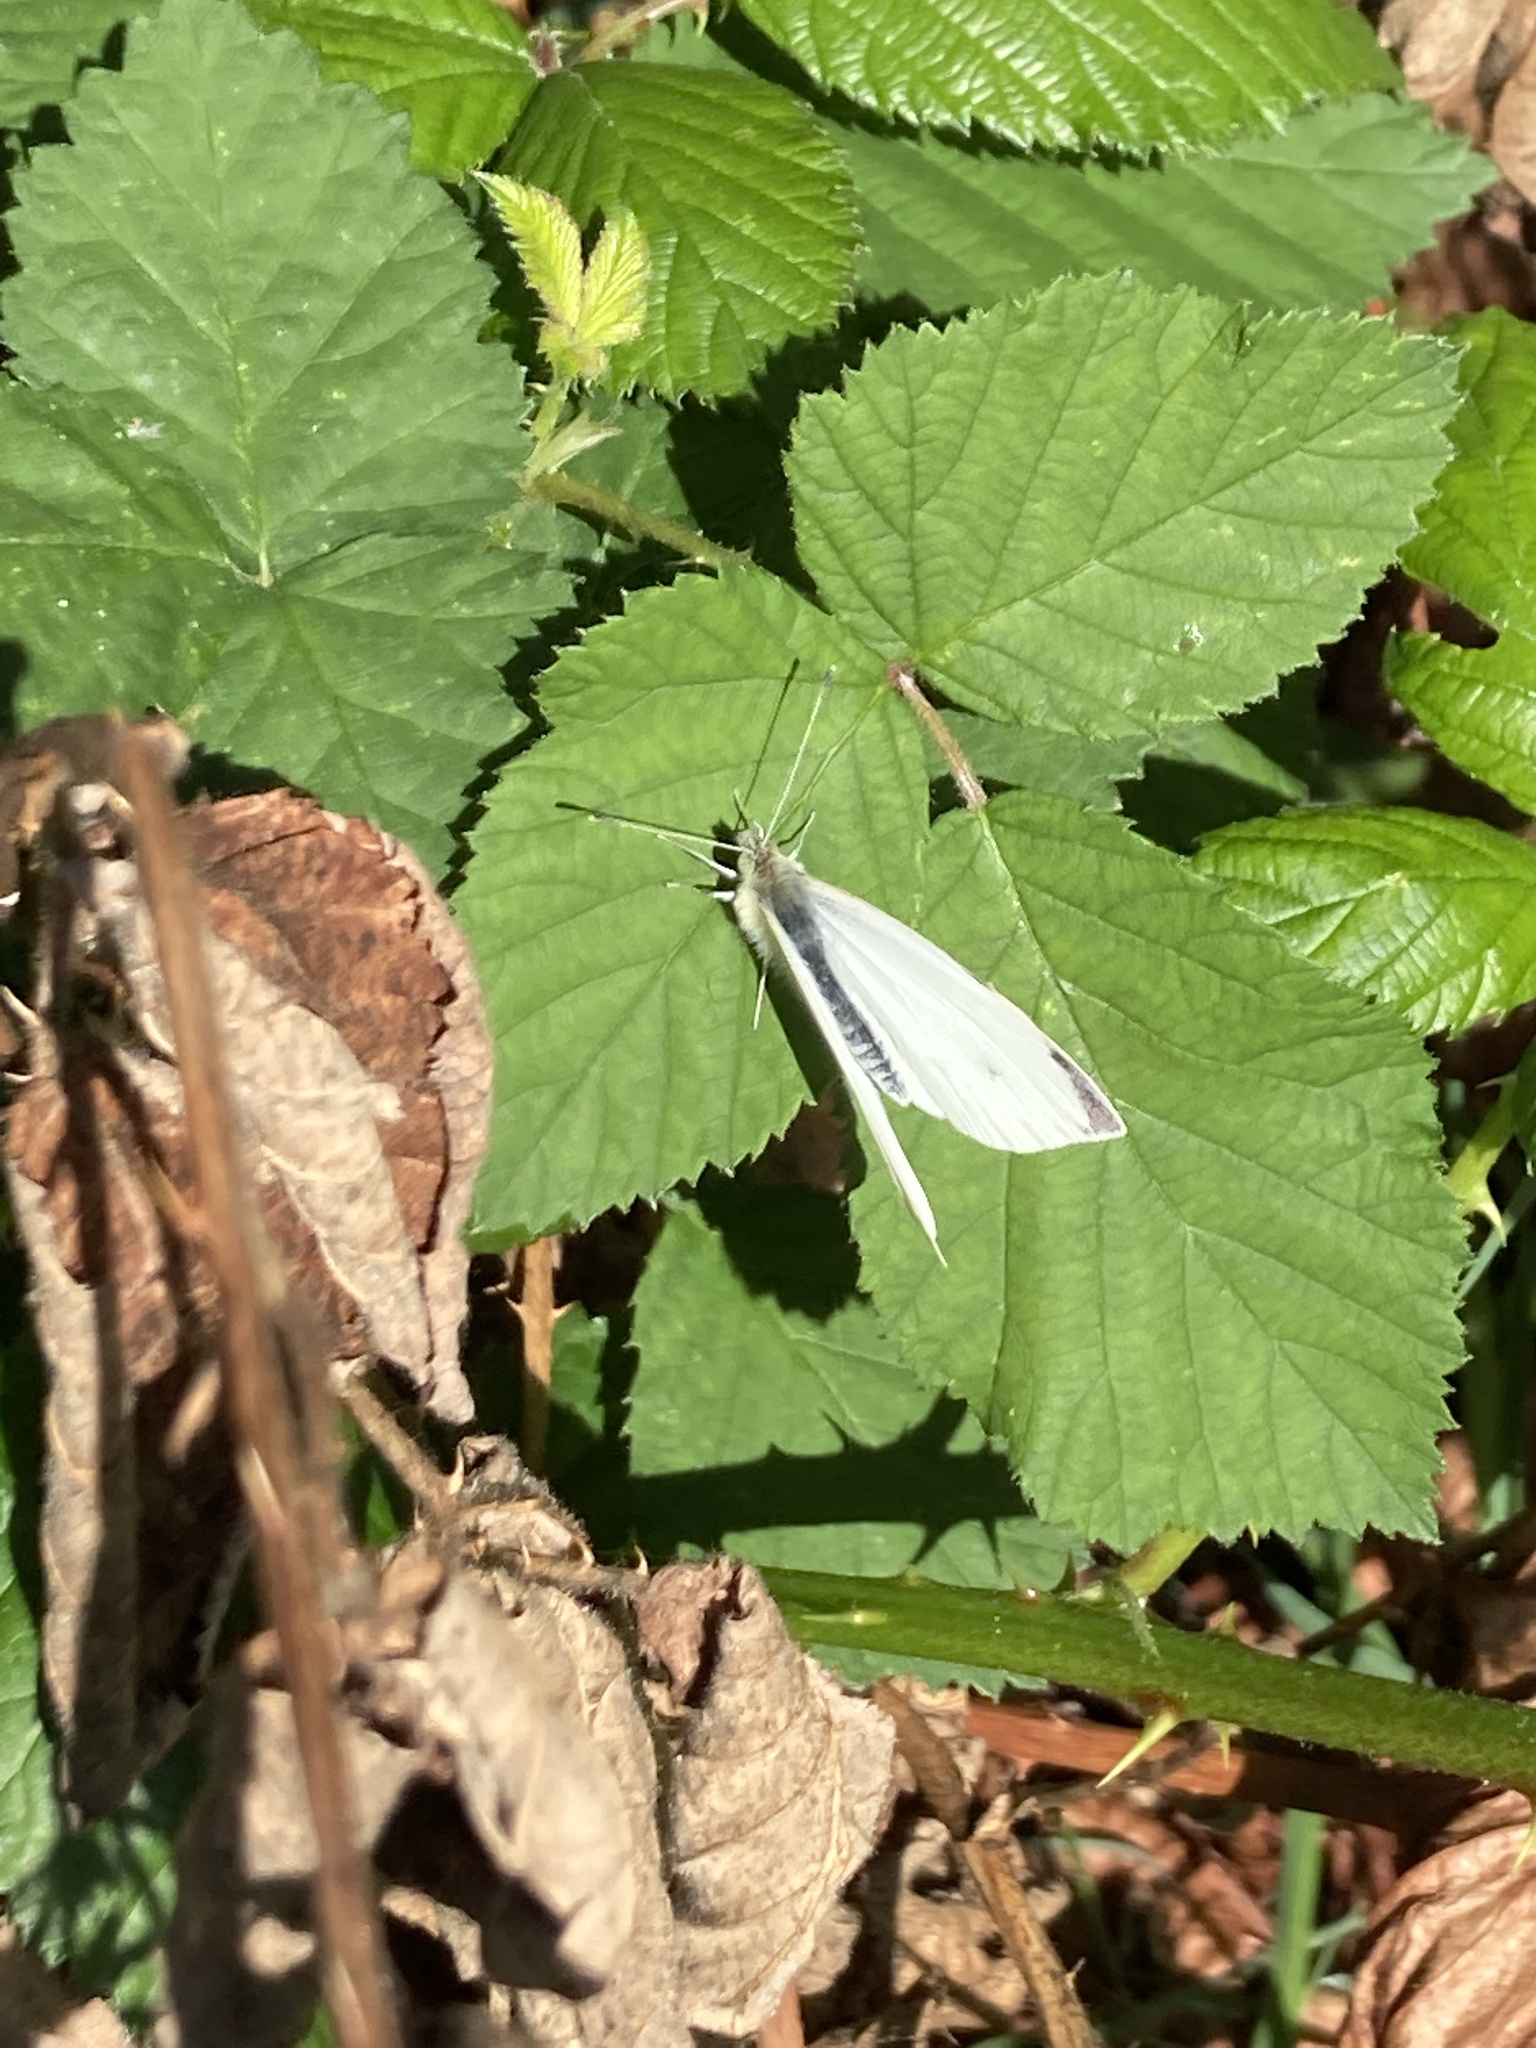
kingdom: Animalia
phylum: Arthropoda
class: Insecta
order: Lepidoptera
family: Pieridae
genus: Pieris
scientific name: Pieris rapae
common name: Small white
